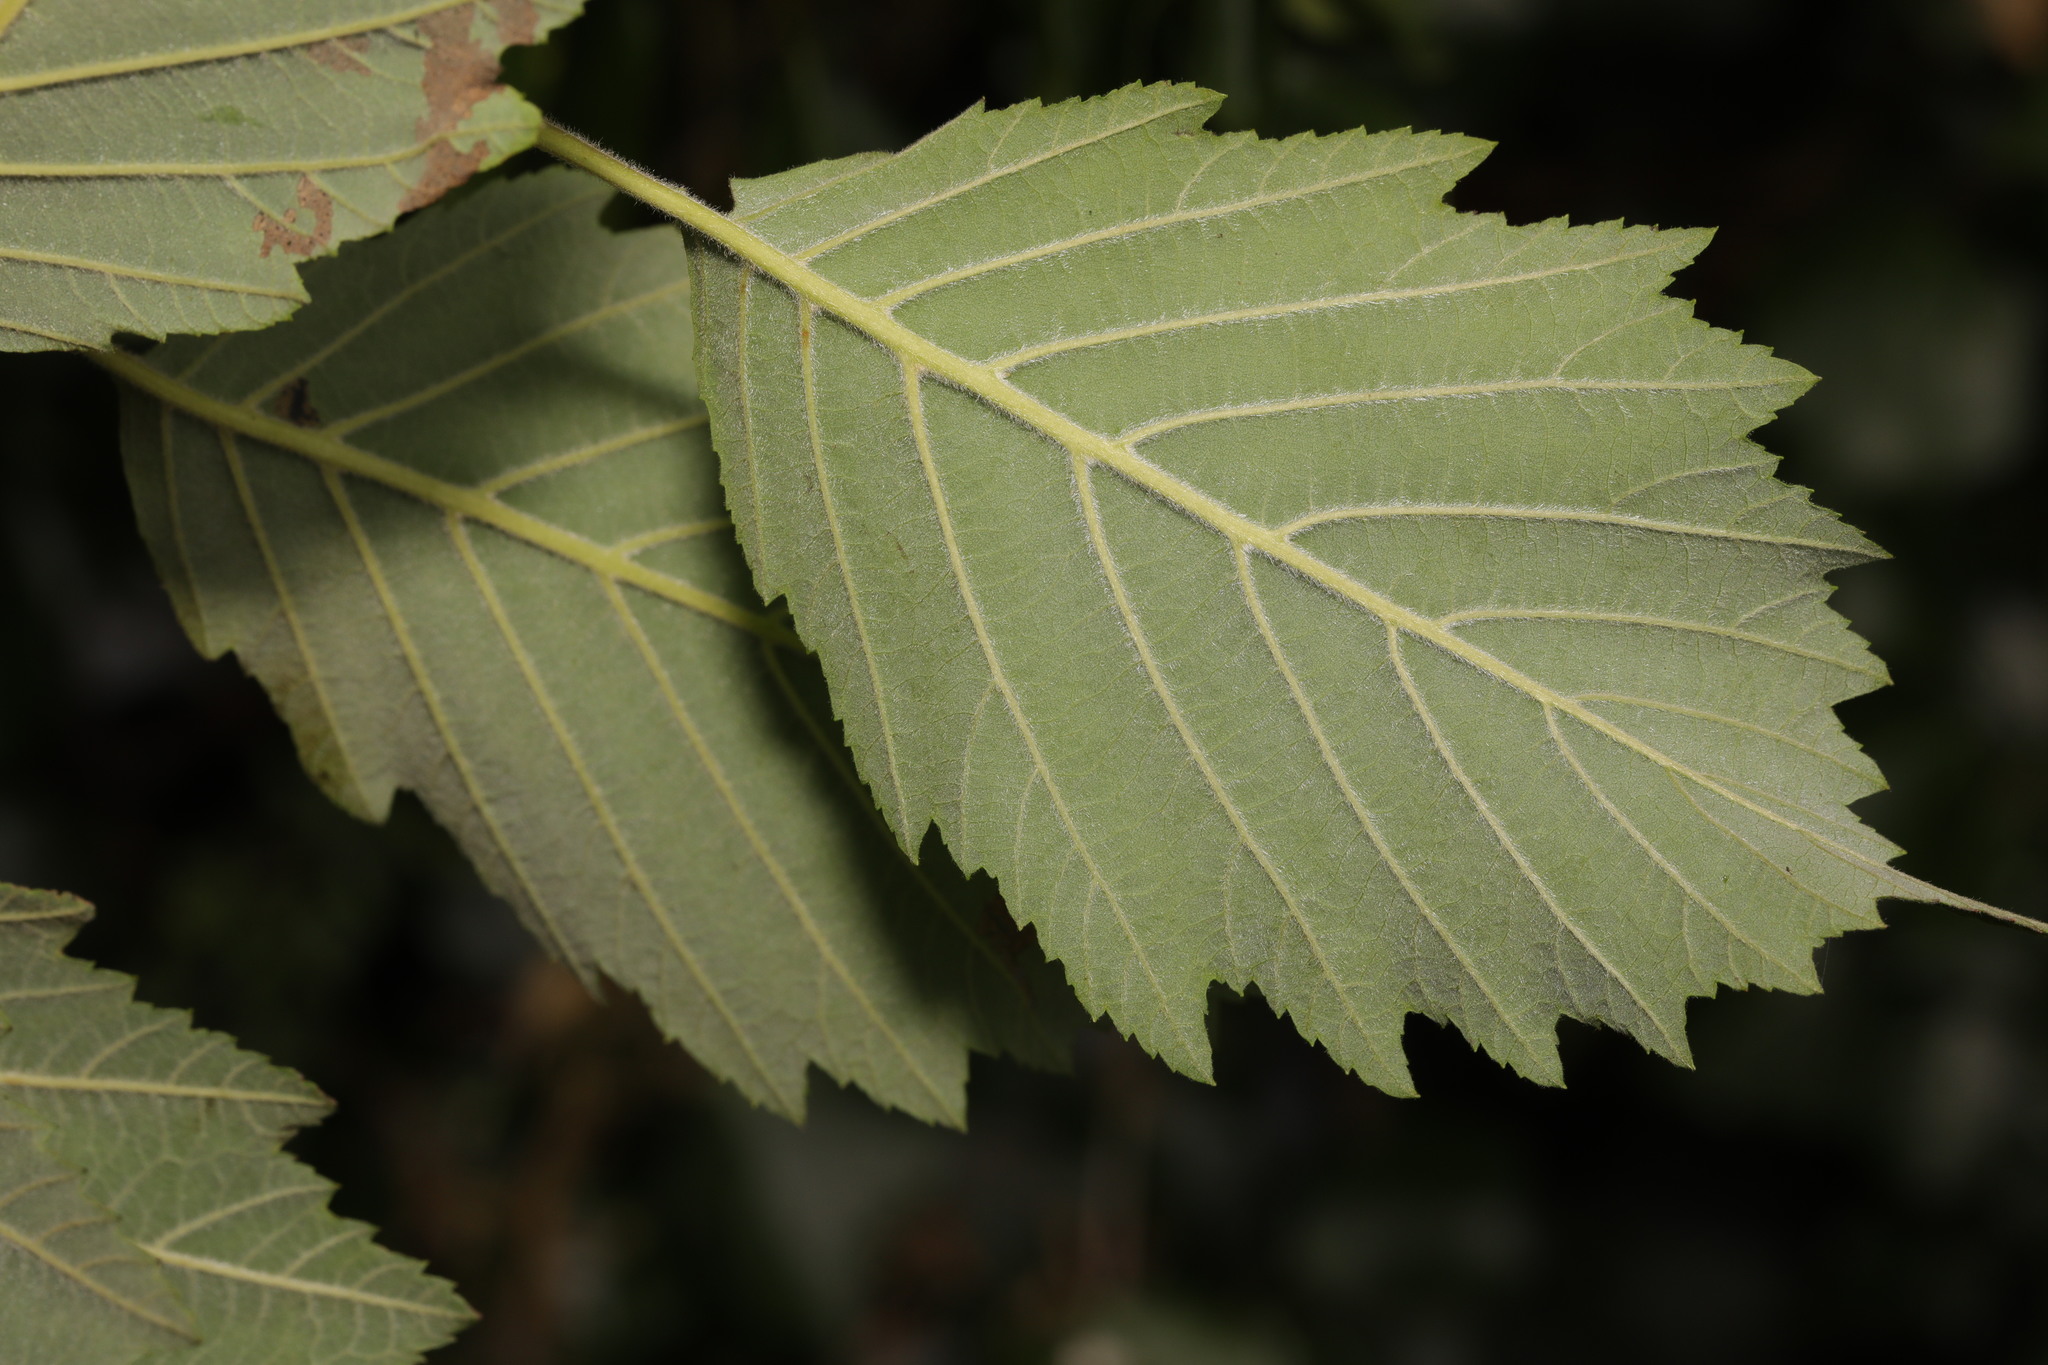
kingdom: Plantae
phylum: Tracheophyta
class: Magnoliopsida
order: Fagales
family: Betulaceae
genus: Alnus
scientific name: Alnus incana
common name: Grey alder
